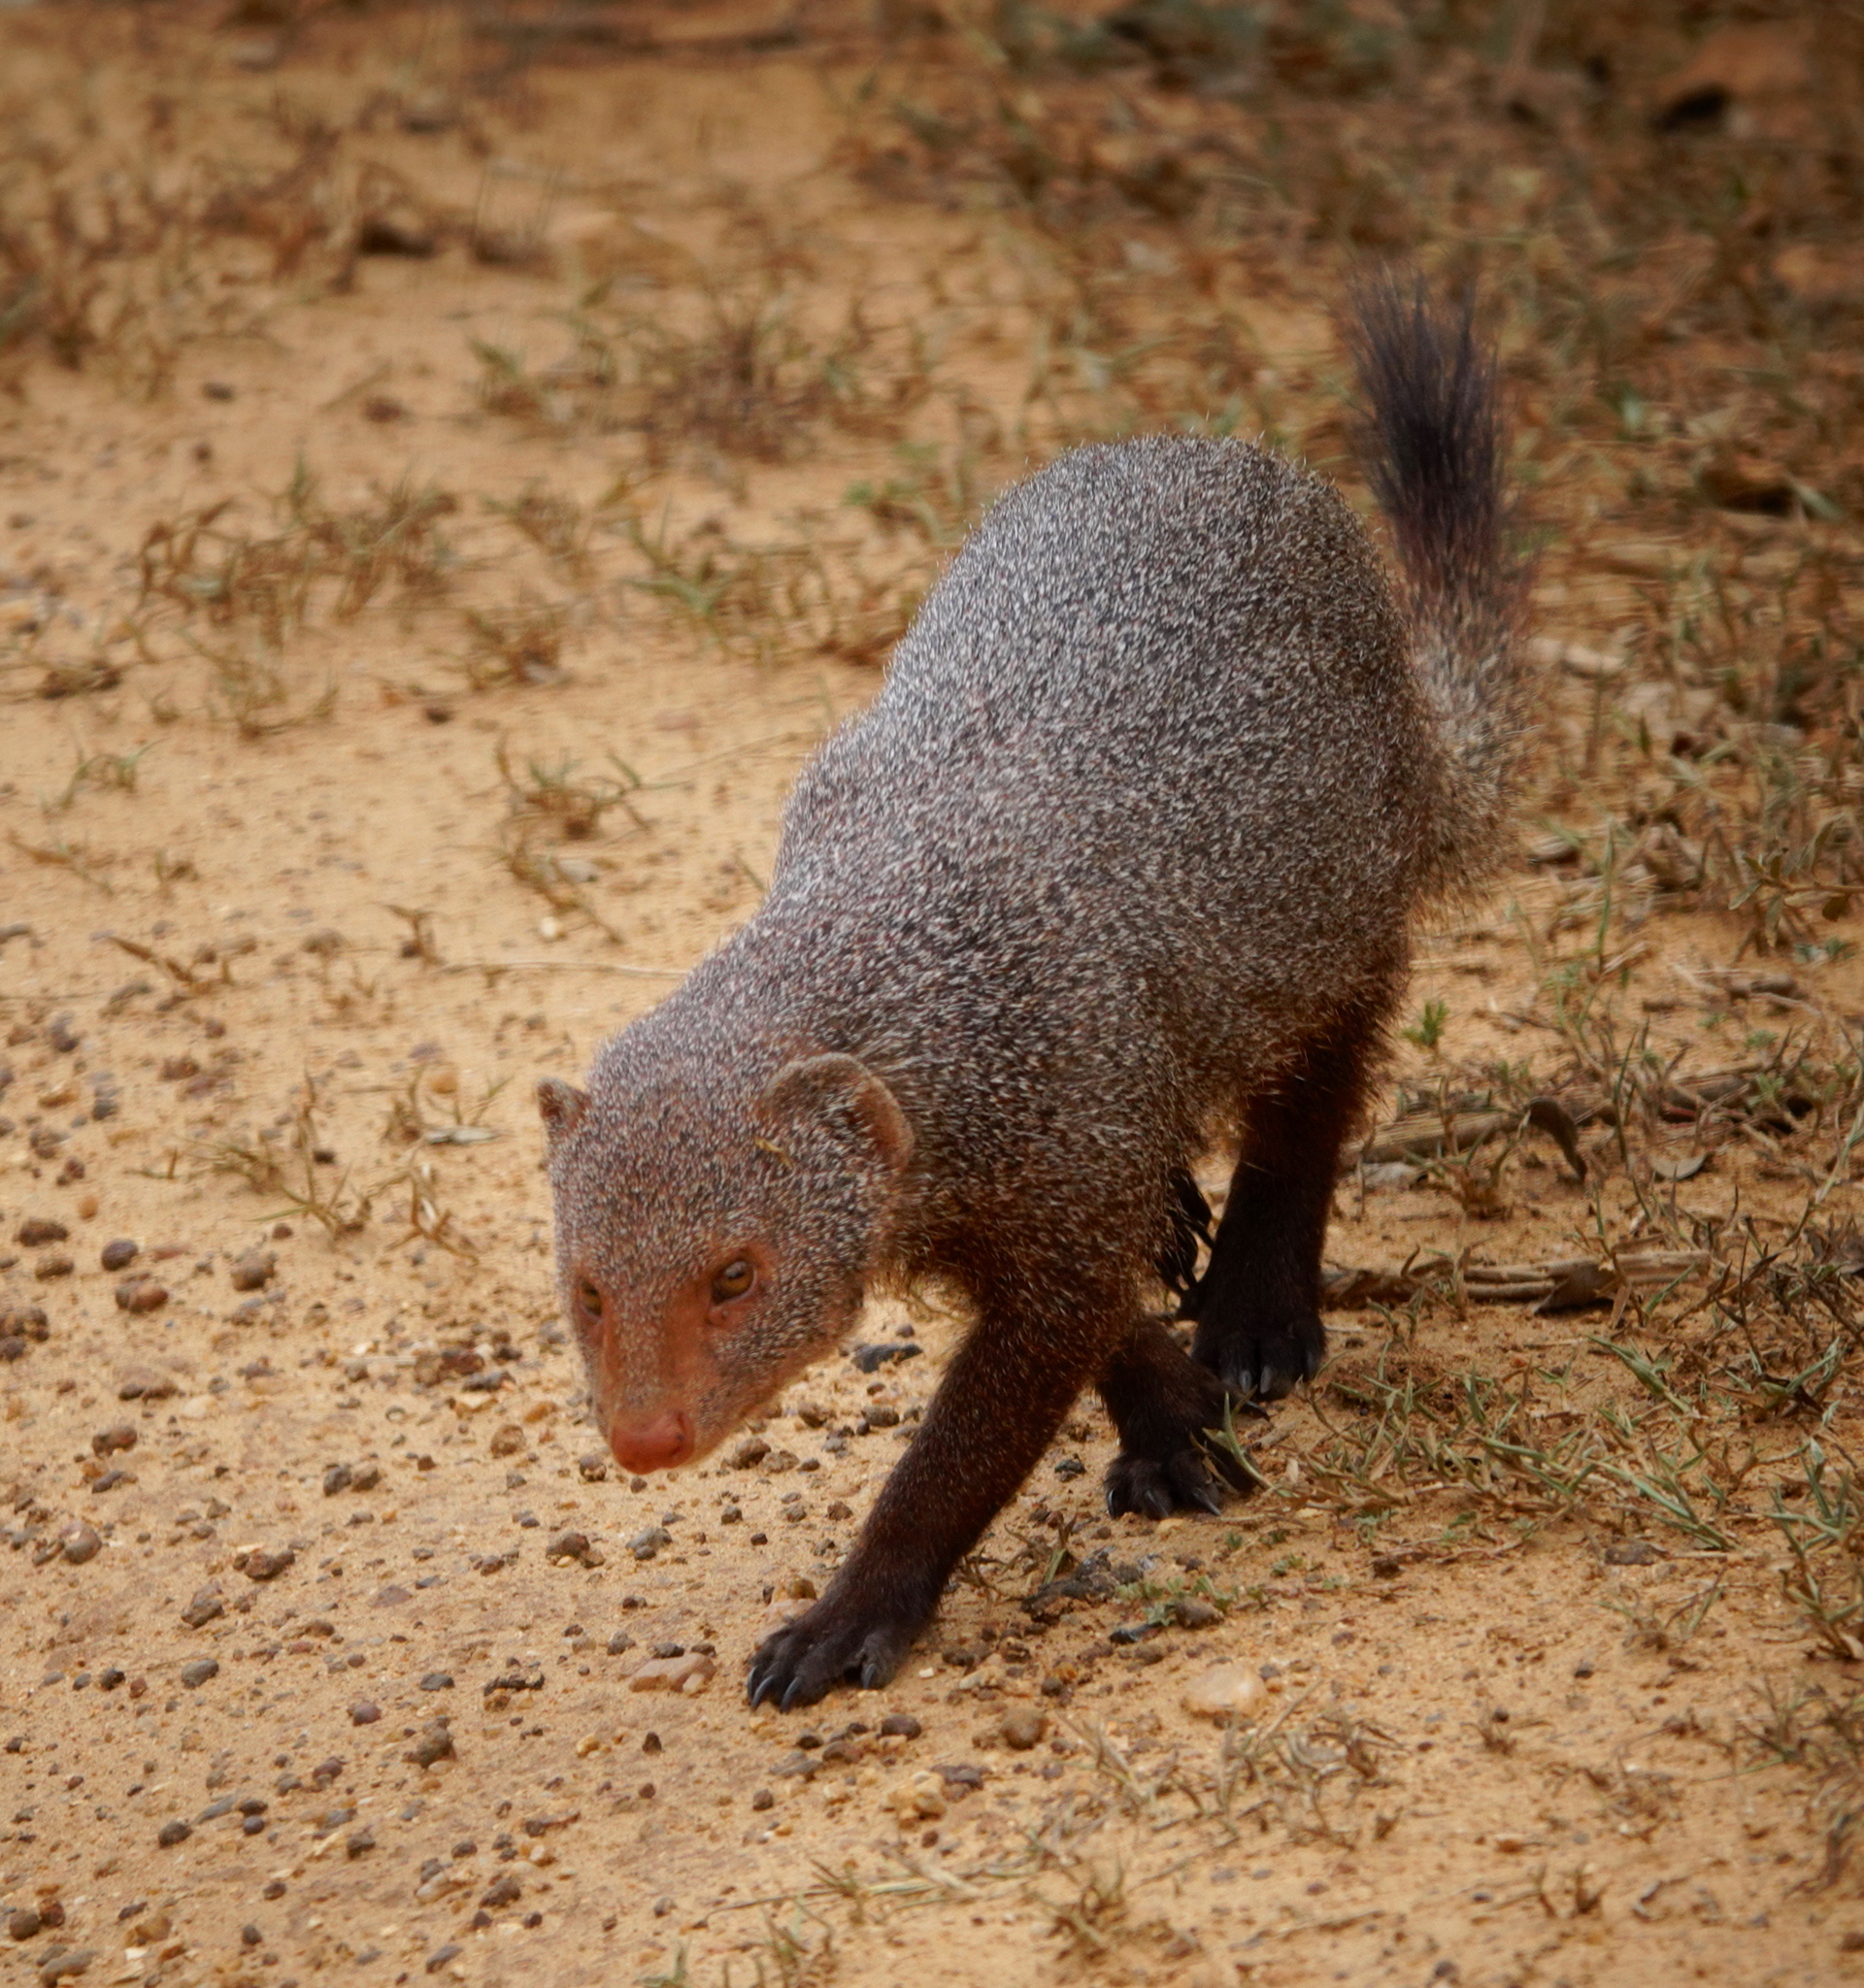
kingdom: Animalia
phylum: Chordata
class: Mammalia
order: Carnivora
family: Herpestidae
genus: Herpestes
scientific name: Herpestes smithii
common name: Ruddy mongoose
